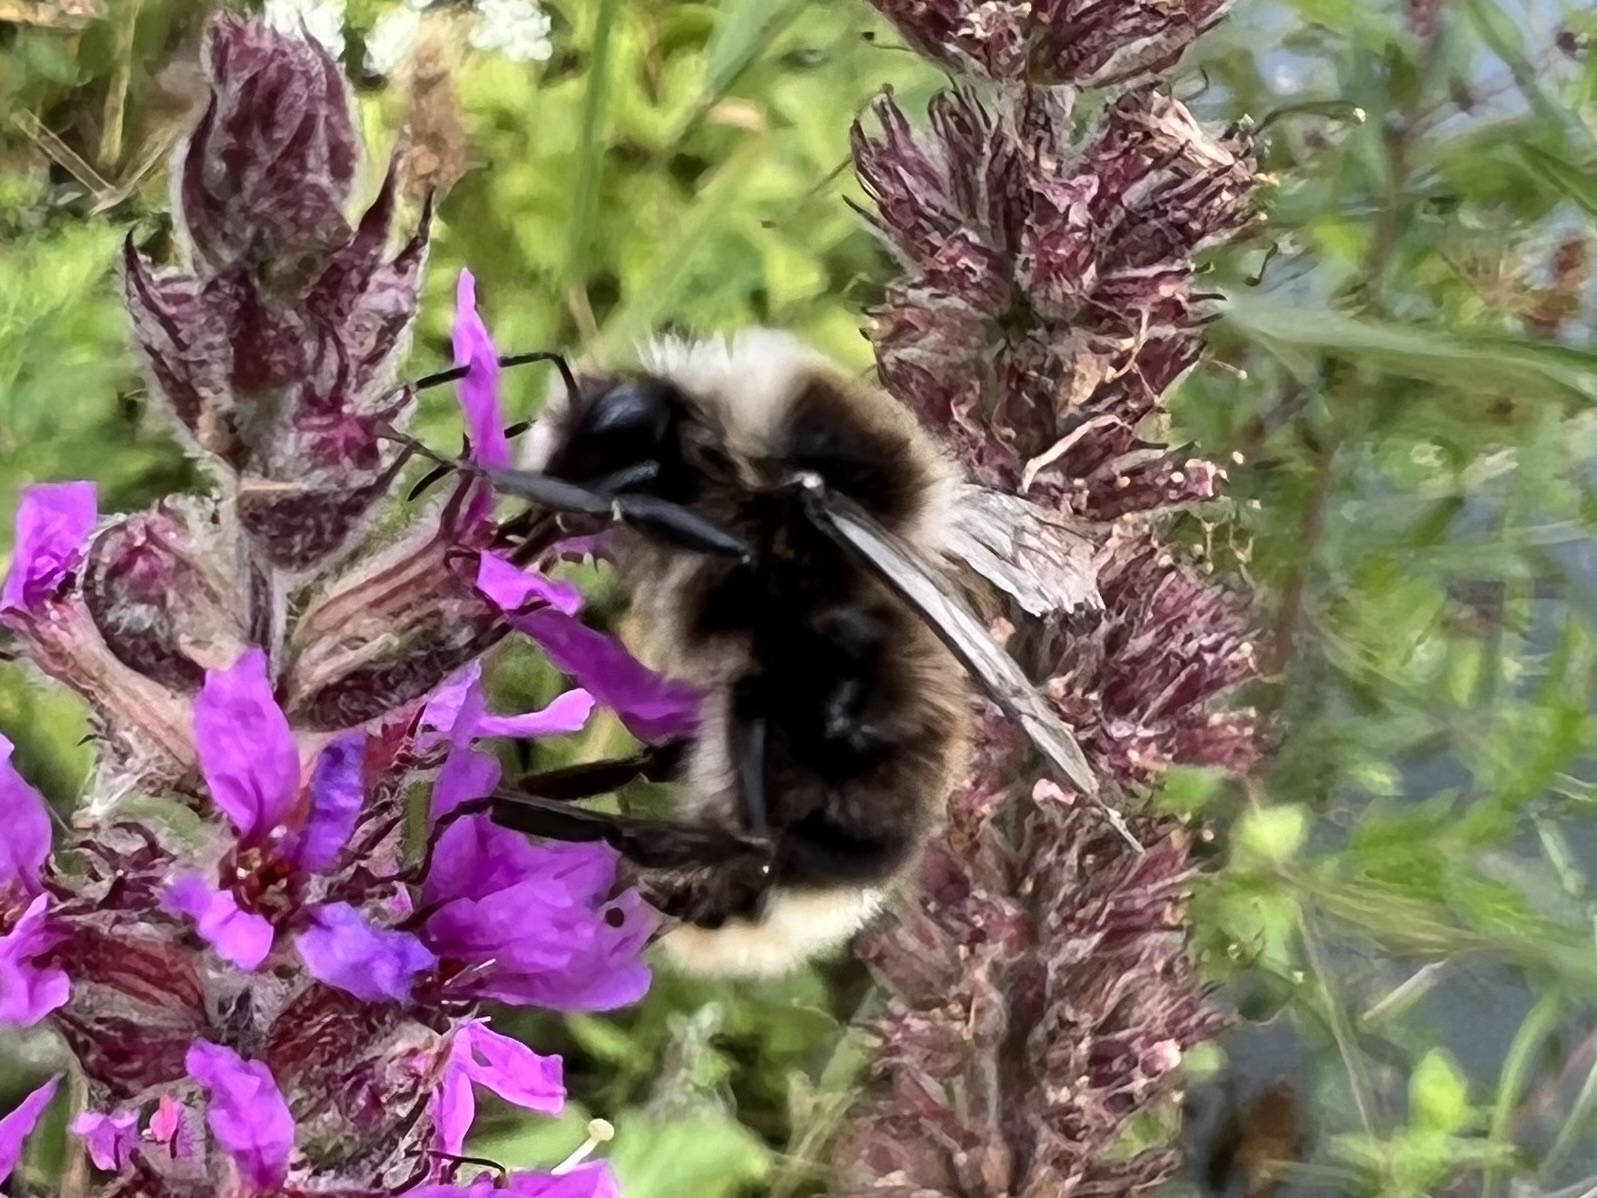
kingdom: Animalia
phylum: Arthropoda
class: Insecta
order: Hymenoptera
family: Apidae
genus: Bombus
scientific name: Bombus lapidarius
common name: Large red-tailed humble-bee
